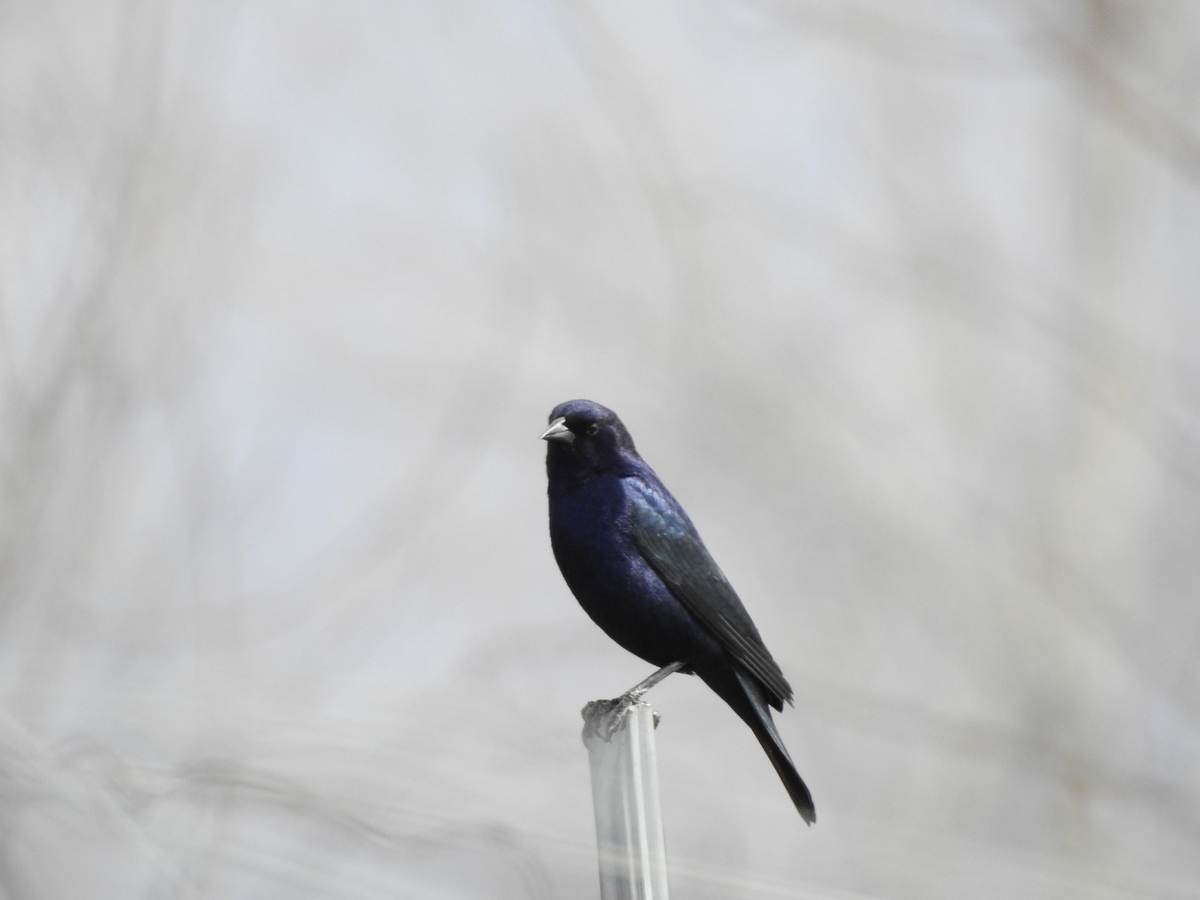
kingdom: Animalia
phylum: Chordata
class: Aves
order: Passeriformes
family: Icteridae
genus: Molothrus
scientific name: Molothrus bonariensis
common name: Shiny cowbird
